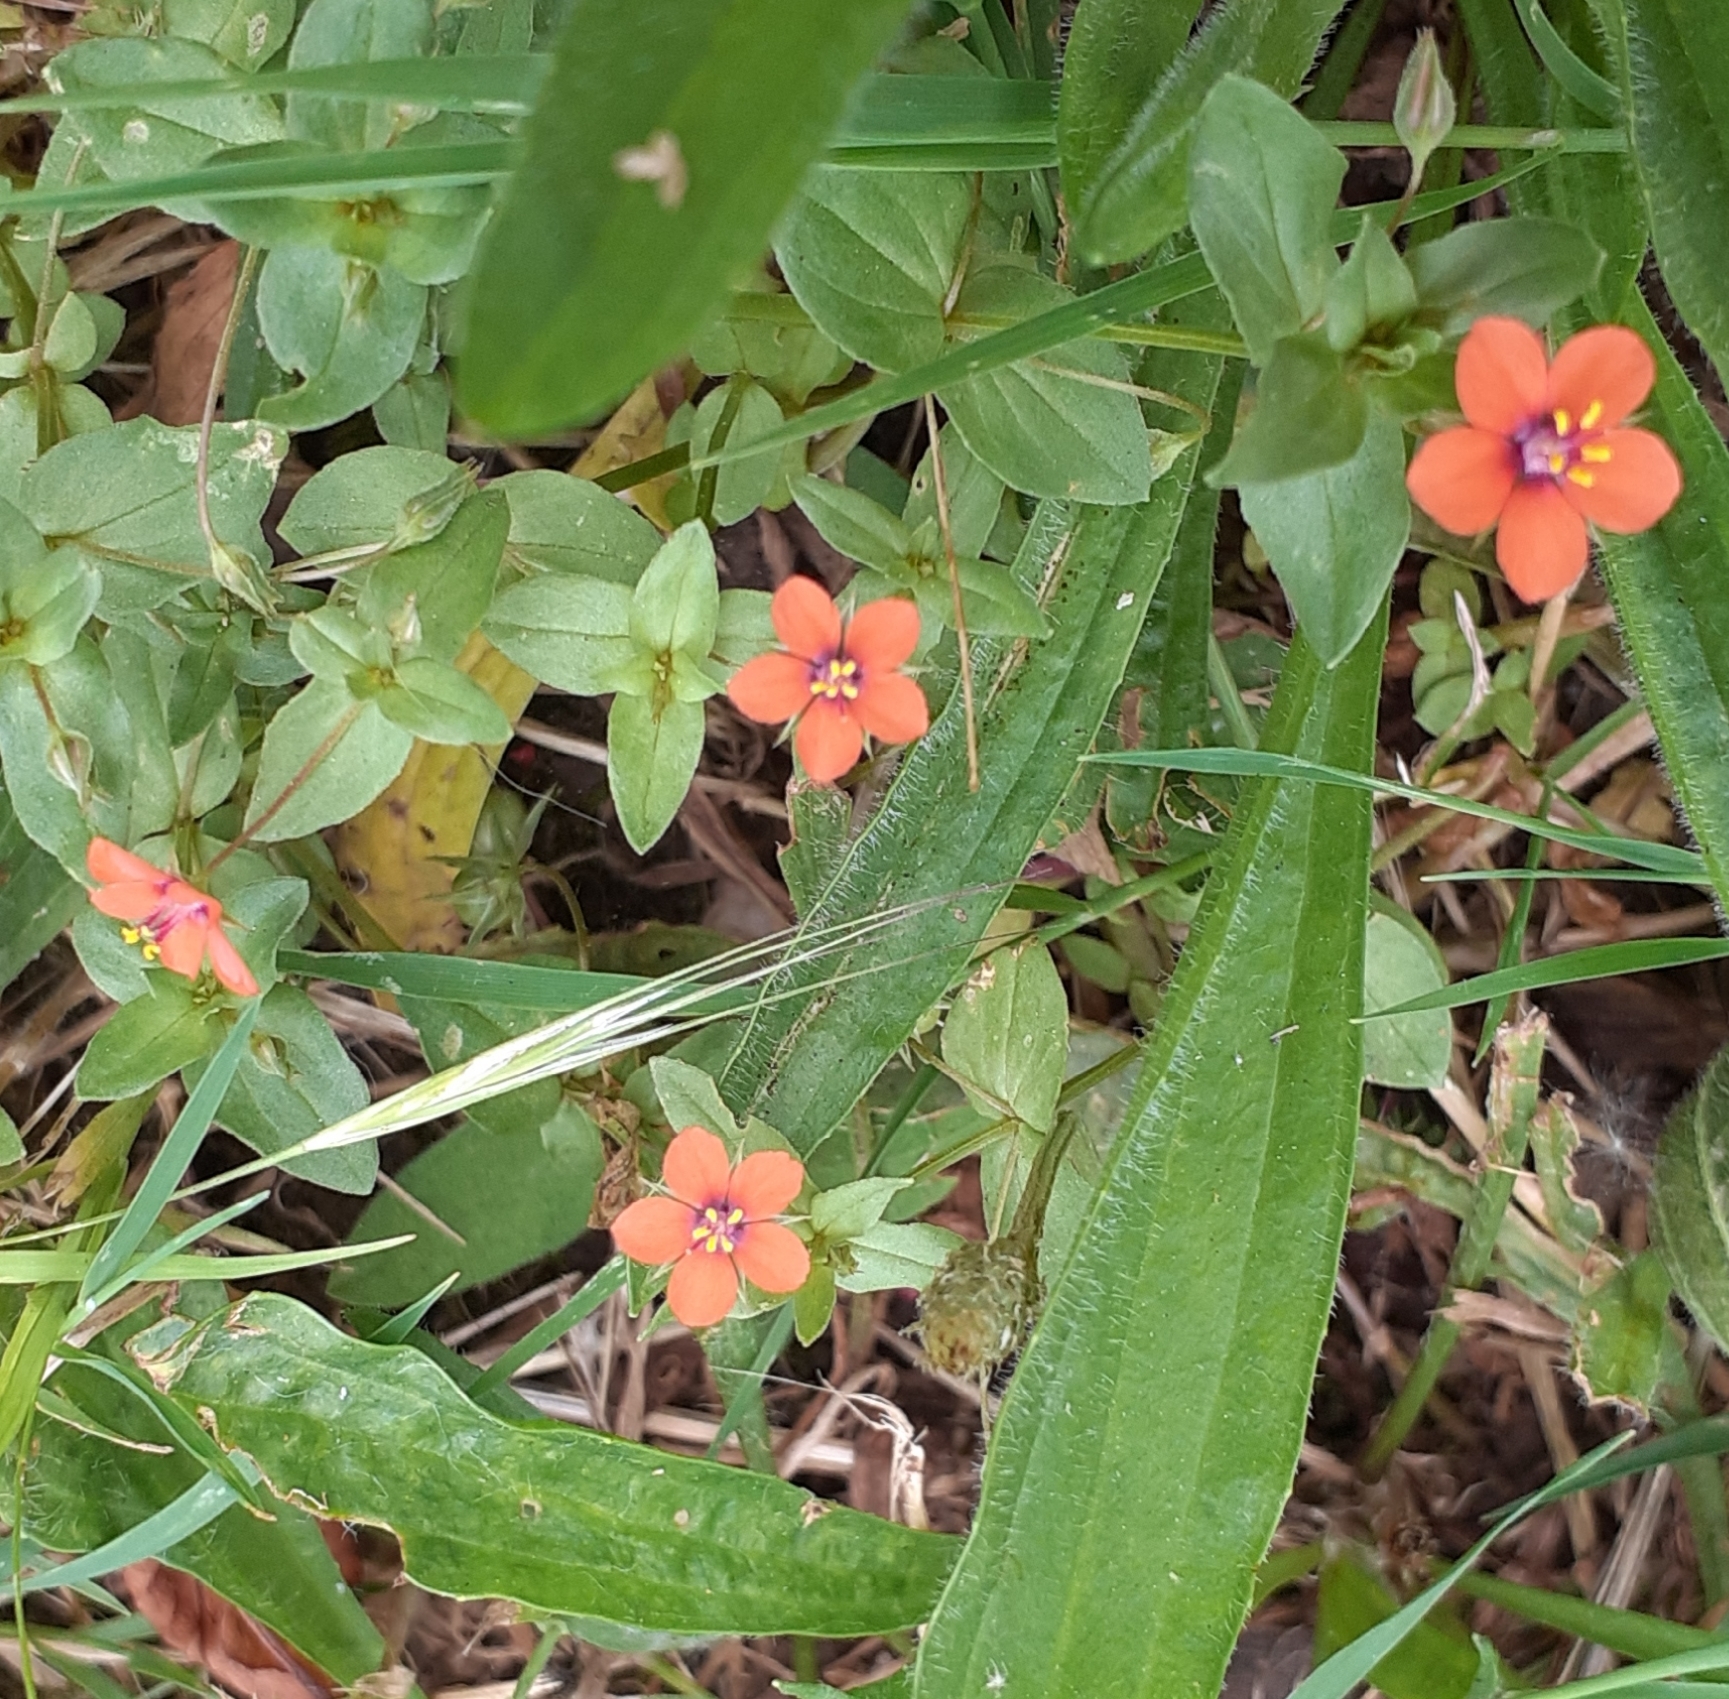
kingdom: Plantae
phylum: Tracheophyta
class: Magnoliopsida
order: Ericales
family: Primulaceae
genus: Lysimachia
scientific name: Lysimachia arvensis
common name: Scarlet pimpernel
